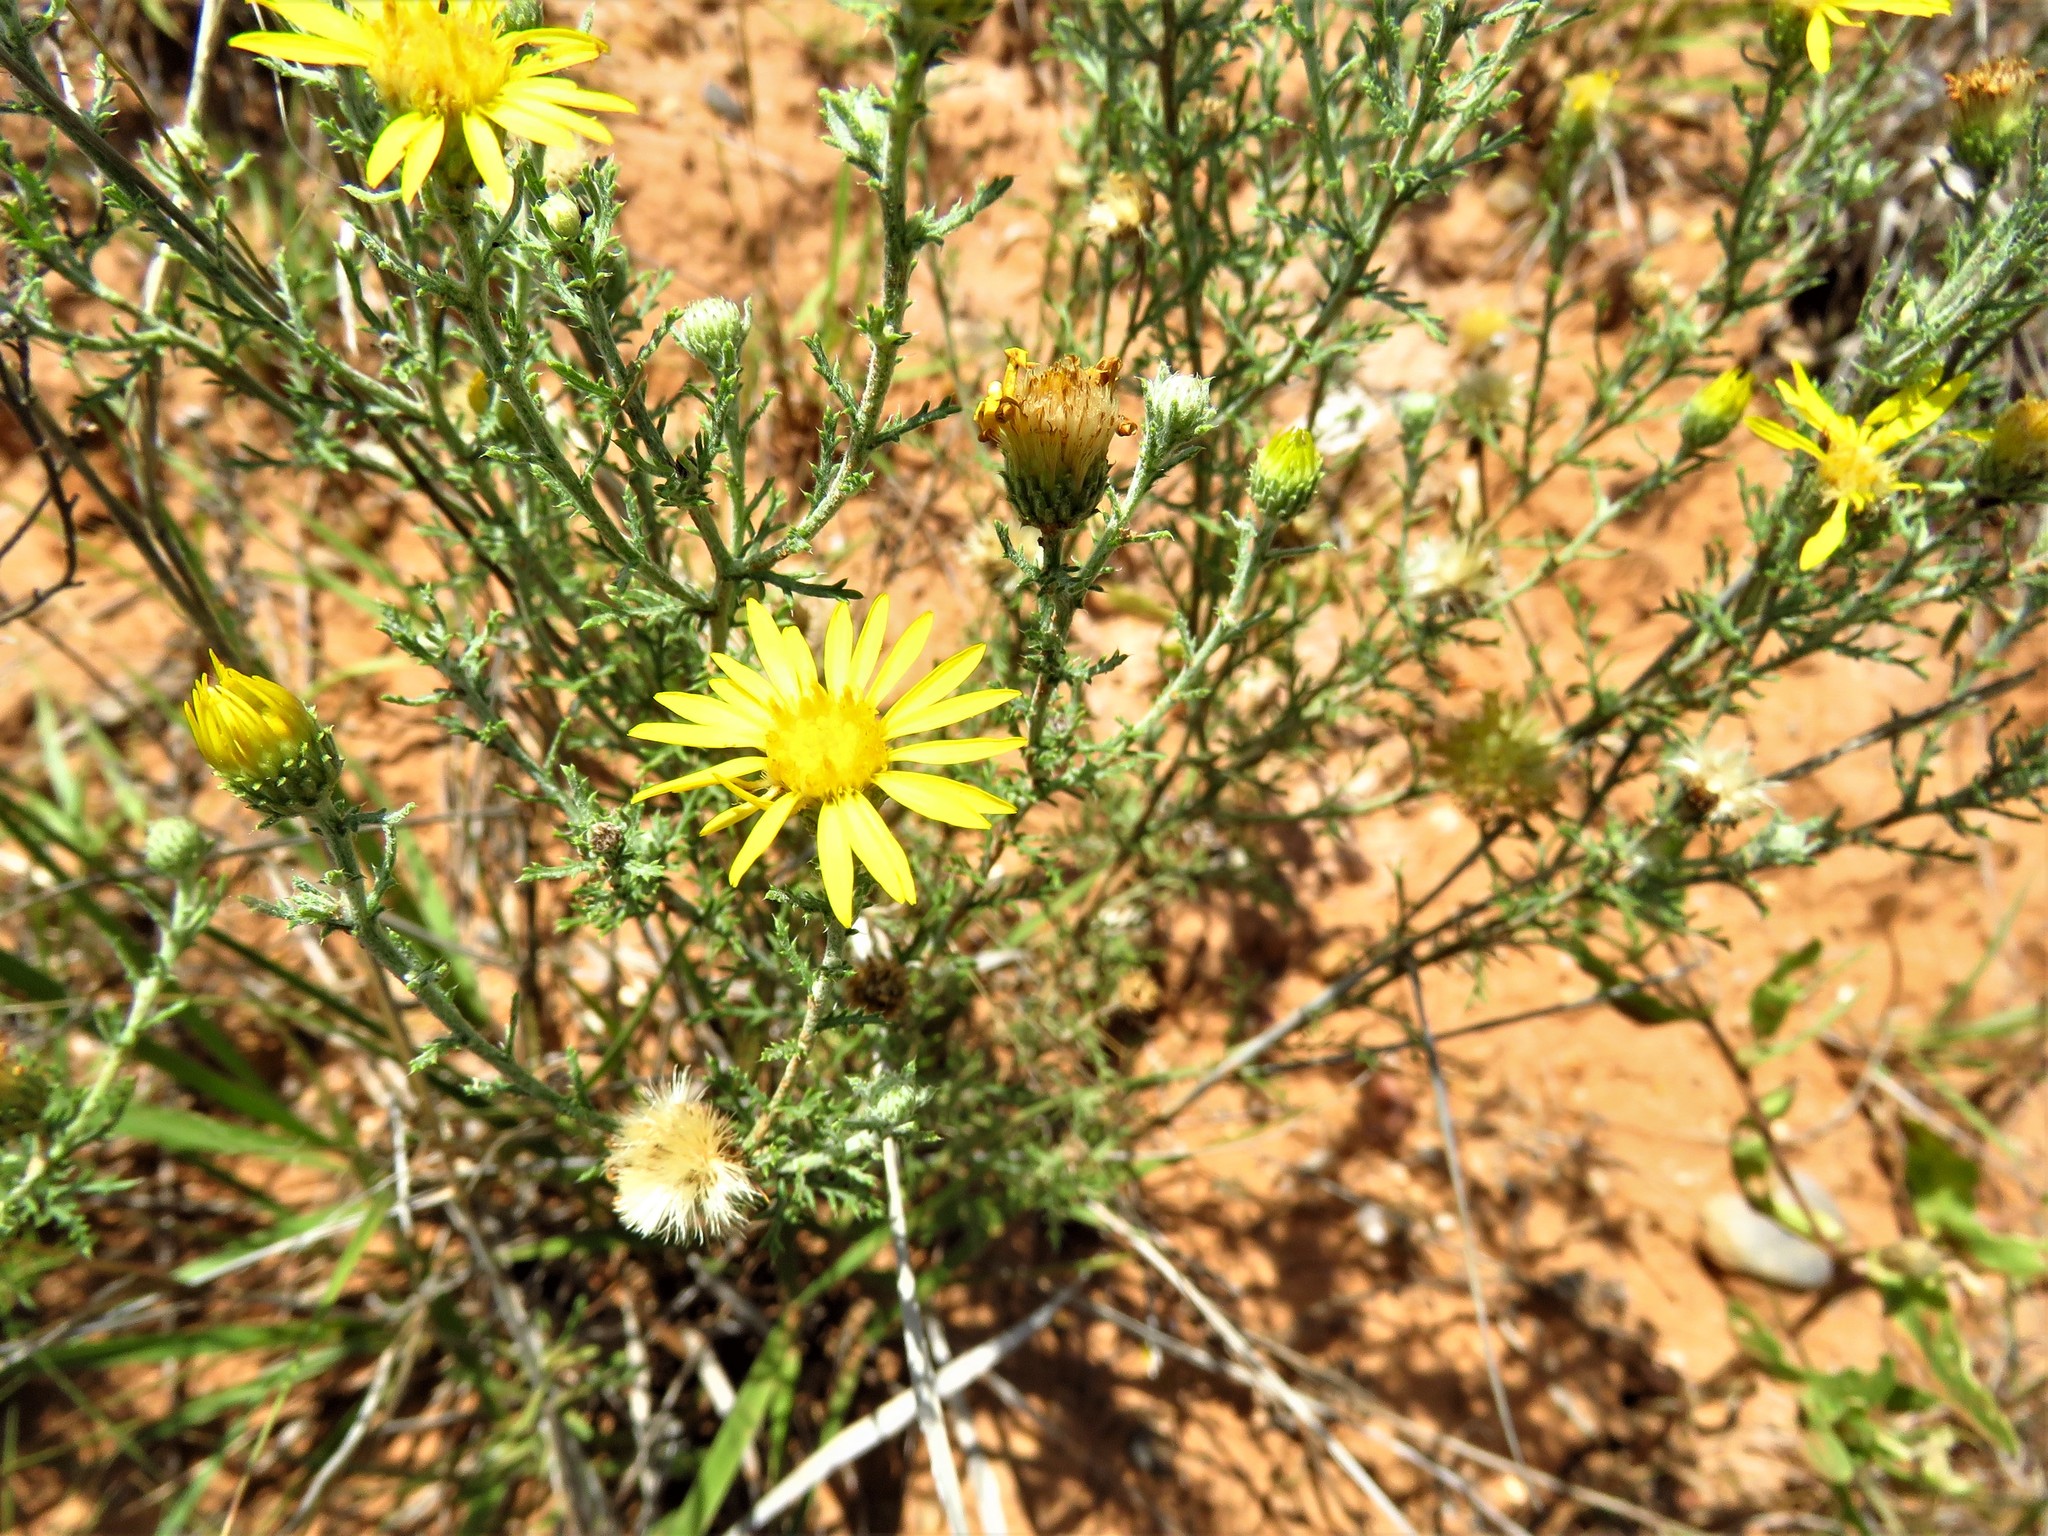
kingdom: Plantae
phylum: Tracheophyta
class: Magnoliopsida
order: Asterales
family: Asteraceae
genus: Xanthisma
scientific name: Xanthisma spinulosum
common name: Spiny goldenweed
